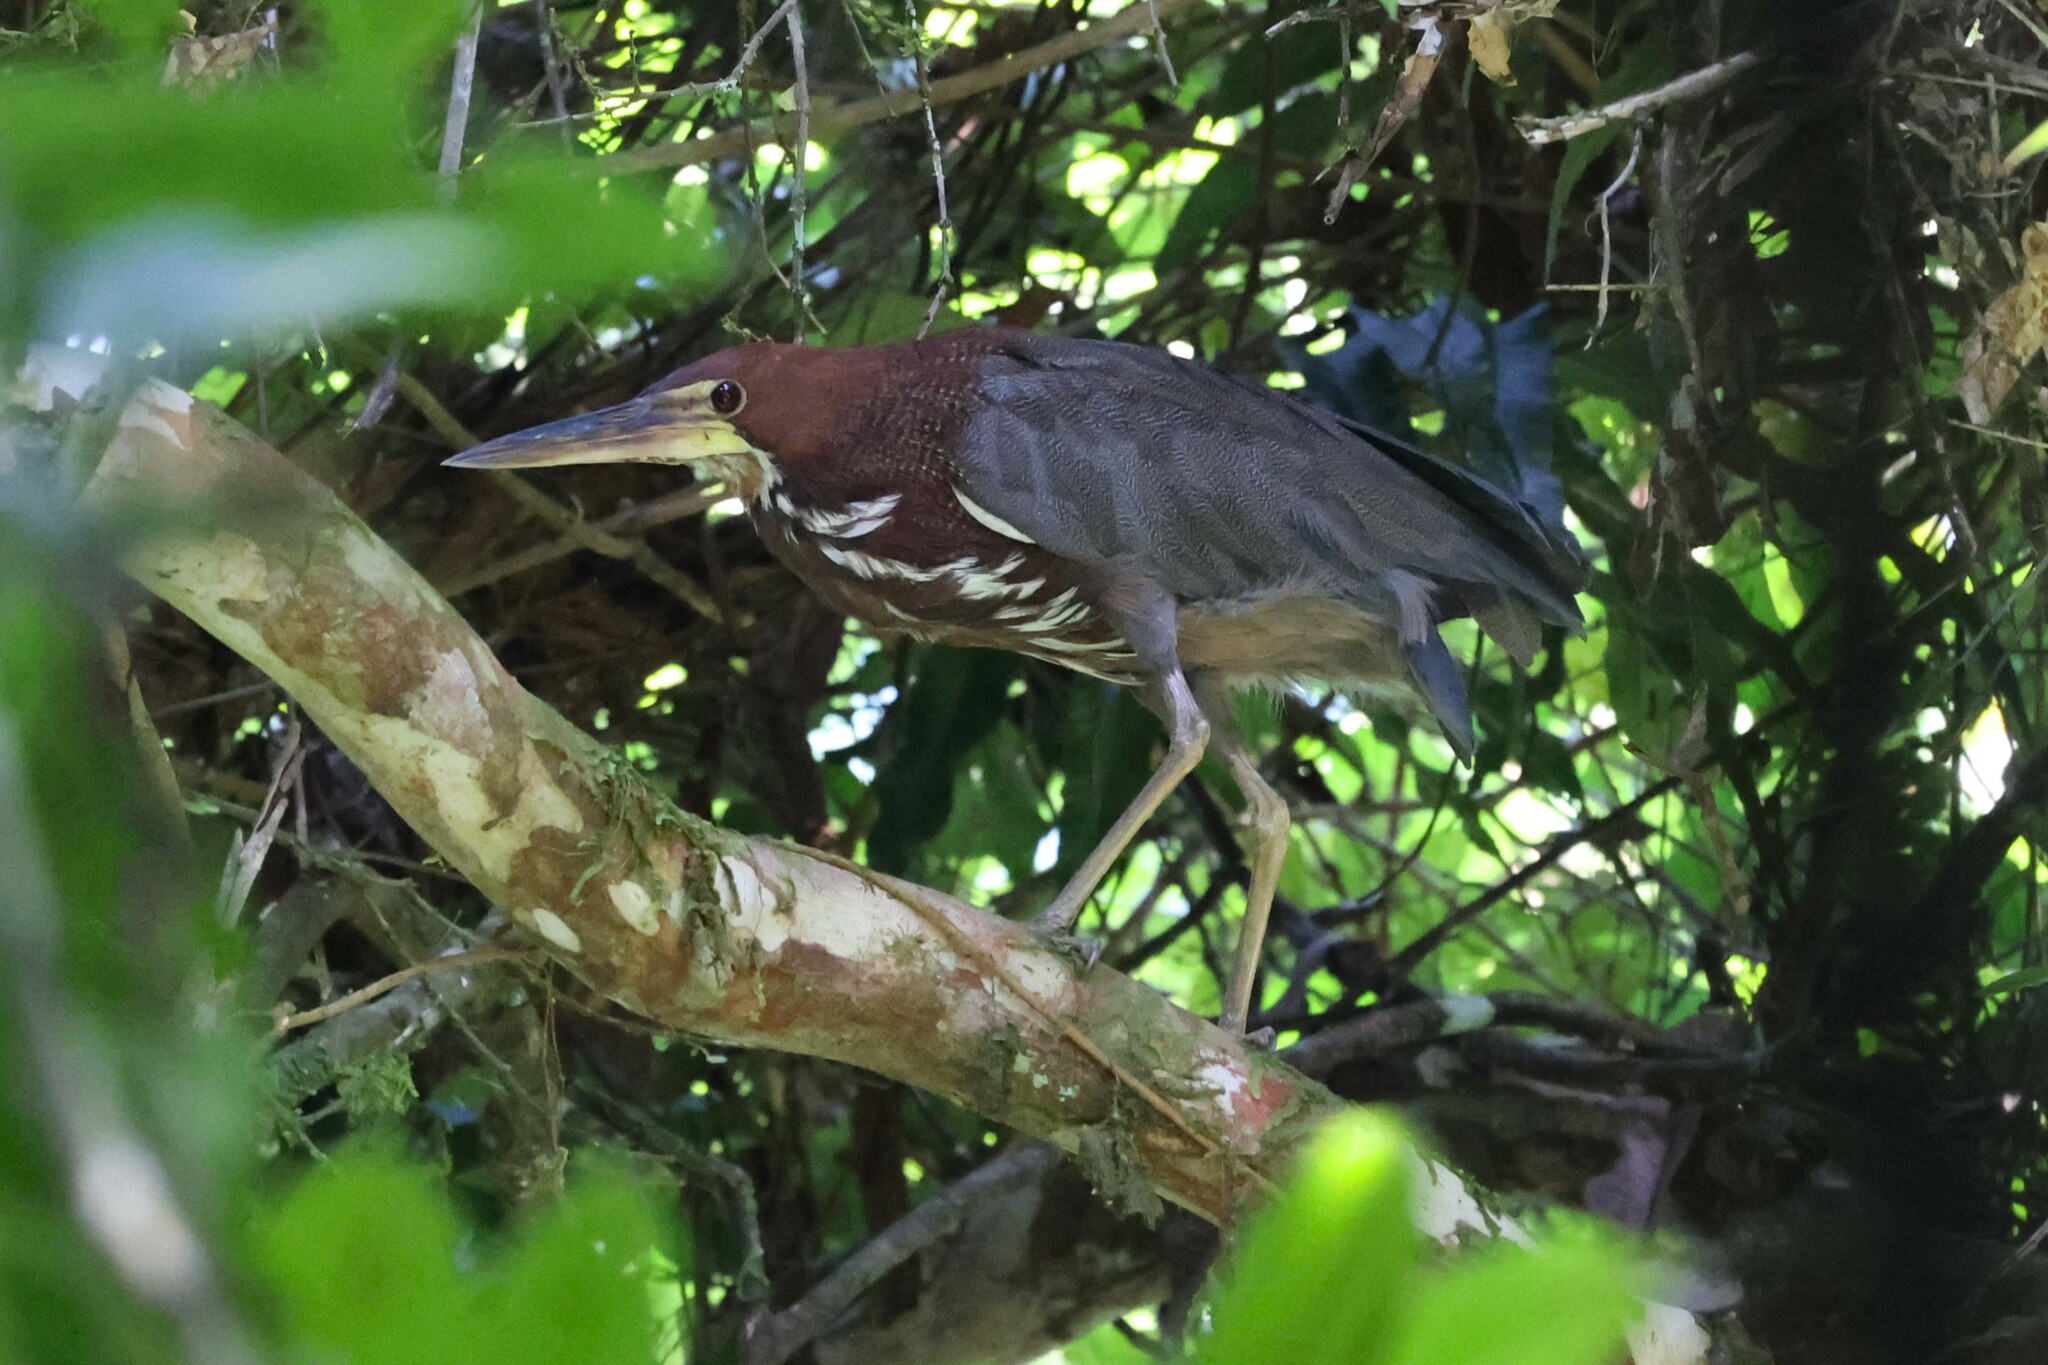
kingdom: Animalia
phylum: Chordata
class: Aves
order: Pelecaniformes
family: Ardeidae
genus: Tigrisoma
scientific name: Tigrisoma lineatum
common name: Rufescent tiger-heron
